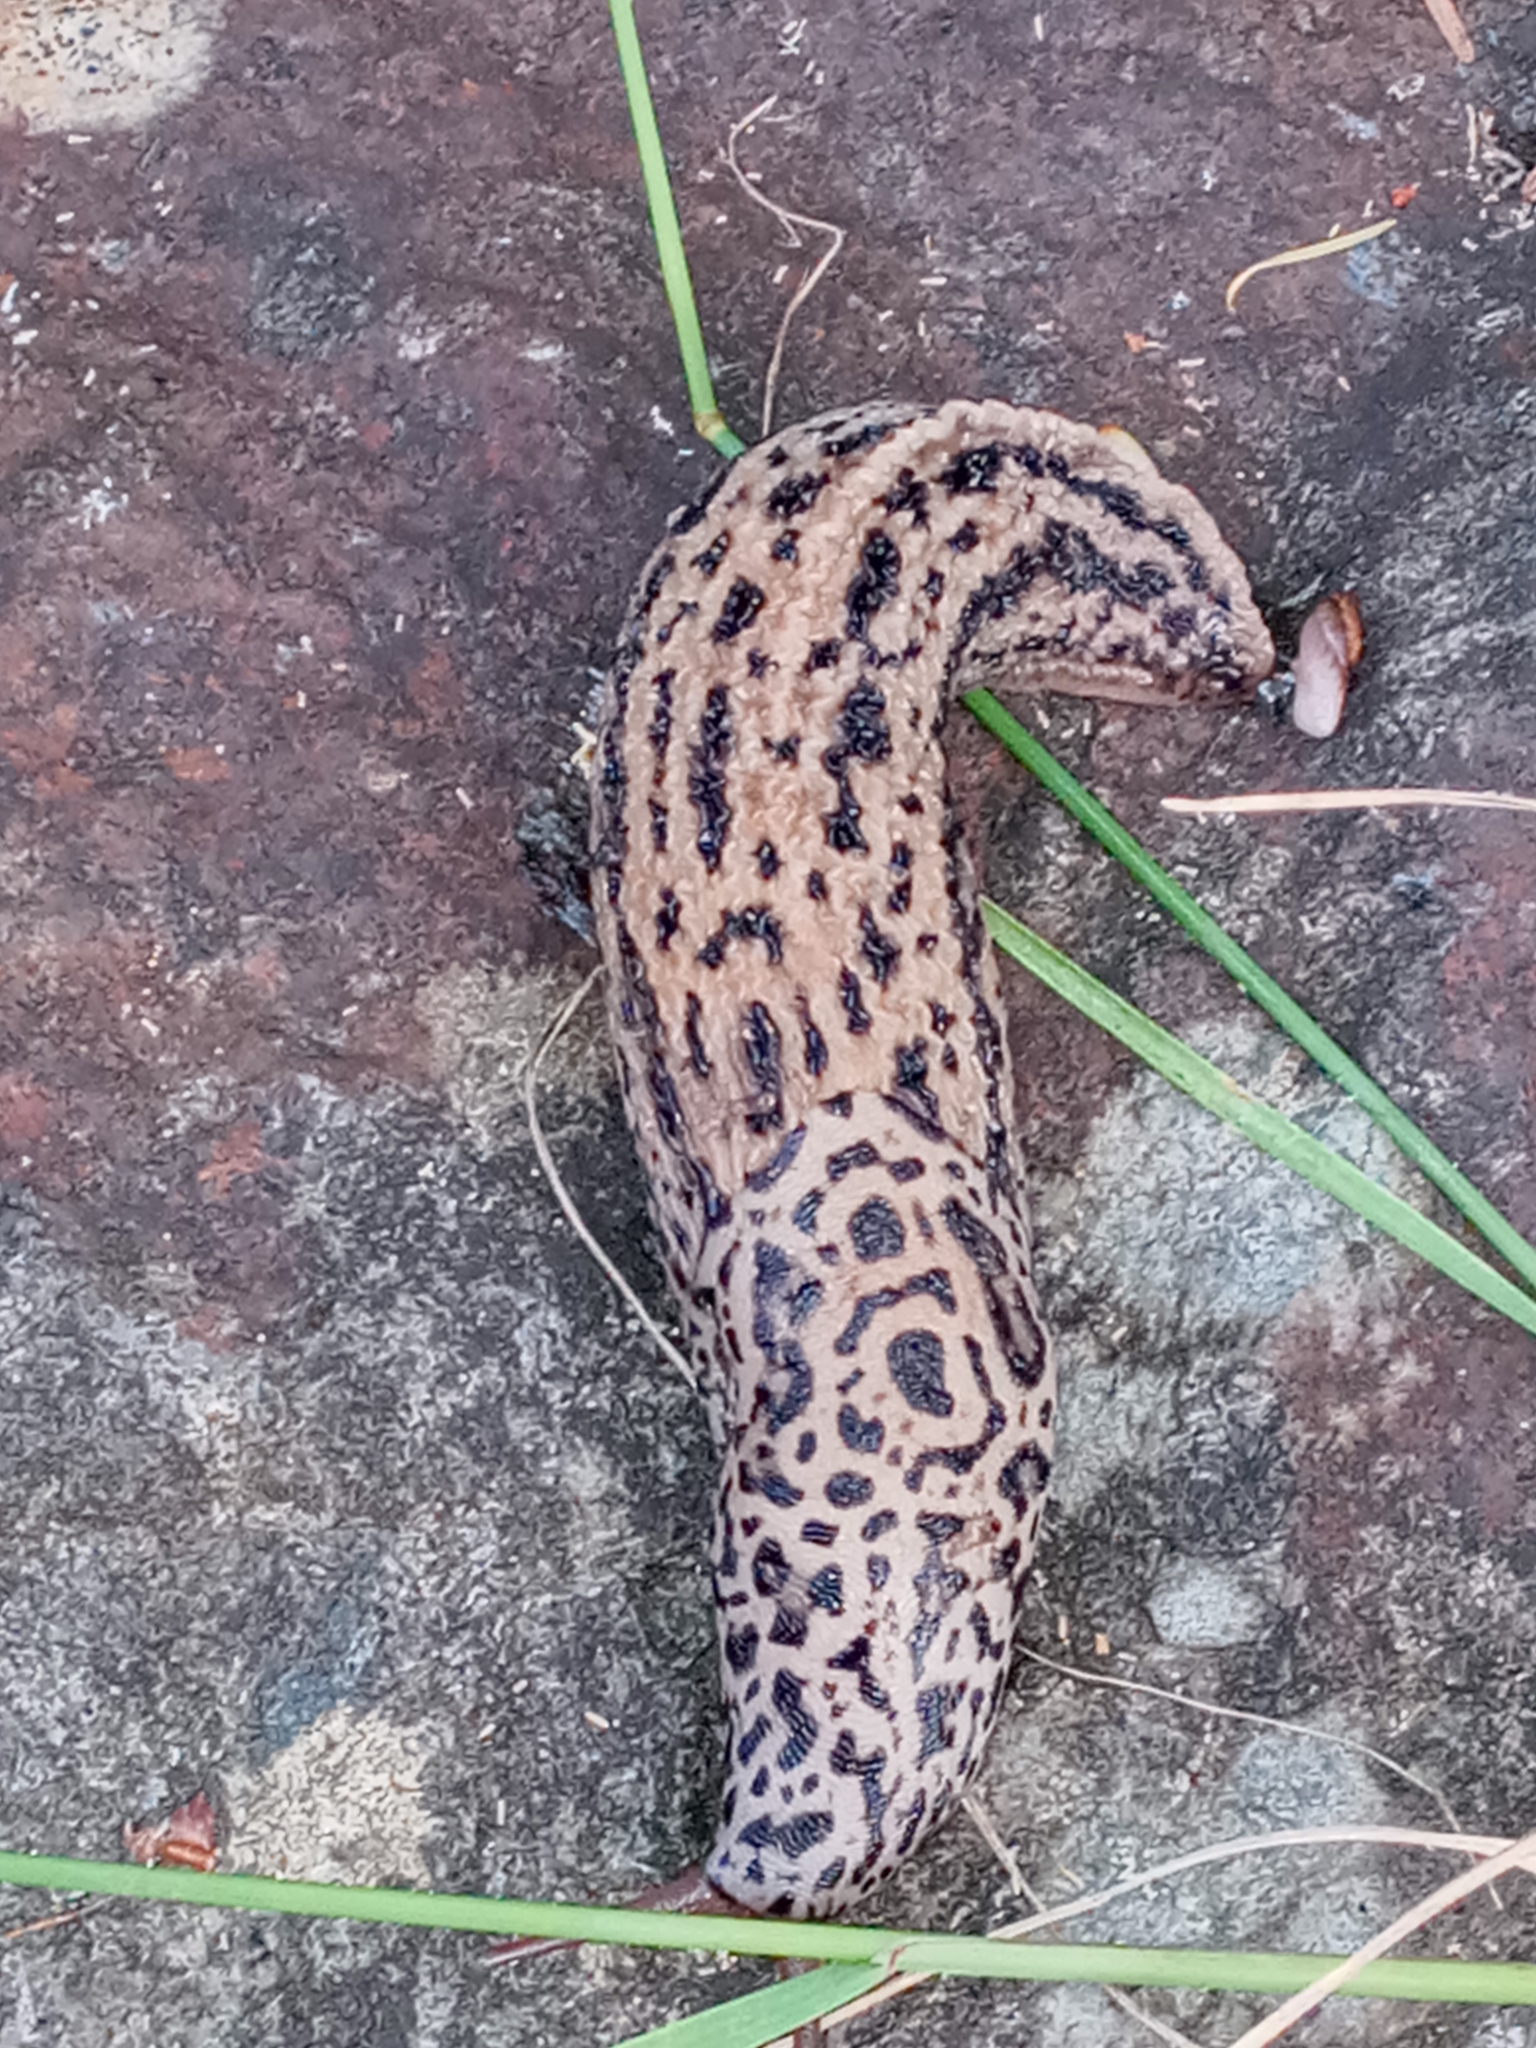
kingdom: Animalia
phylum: Mollusca
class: Gastropoda
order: Stylommatophora
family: Limacidae
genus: Limax
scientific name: Limax maximus
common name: Great grey slug
